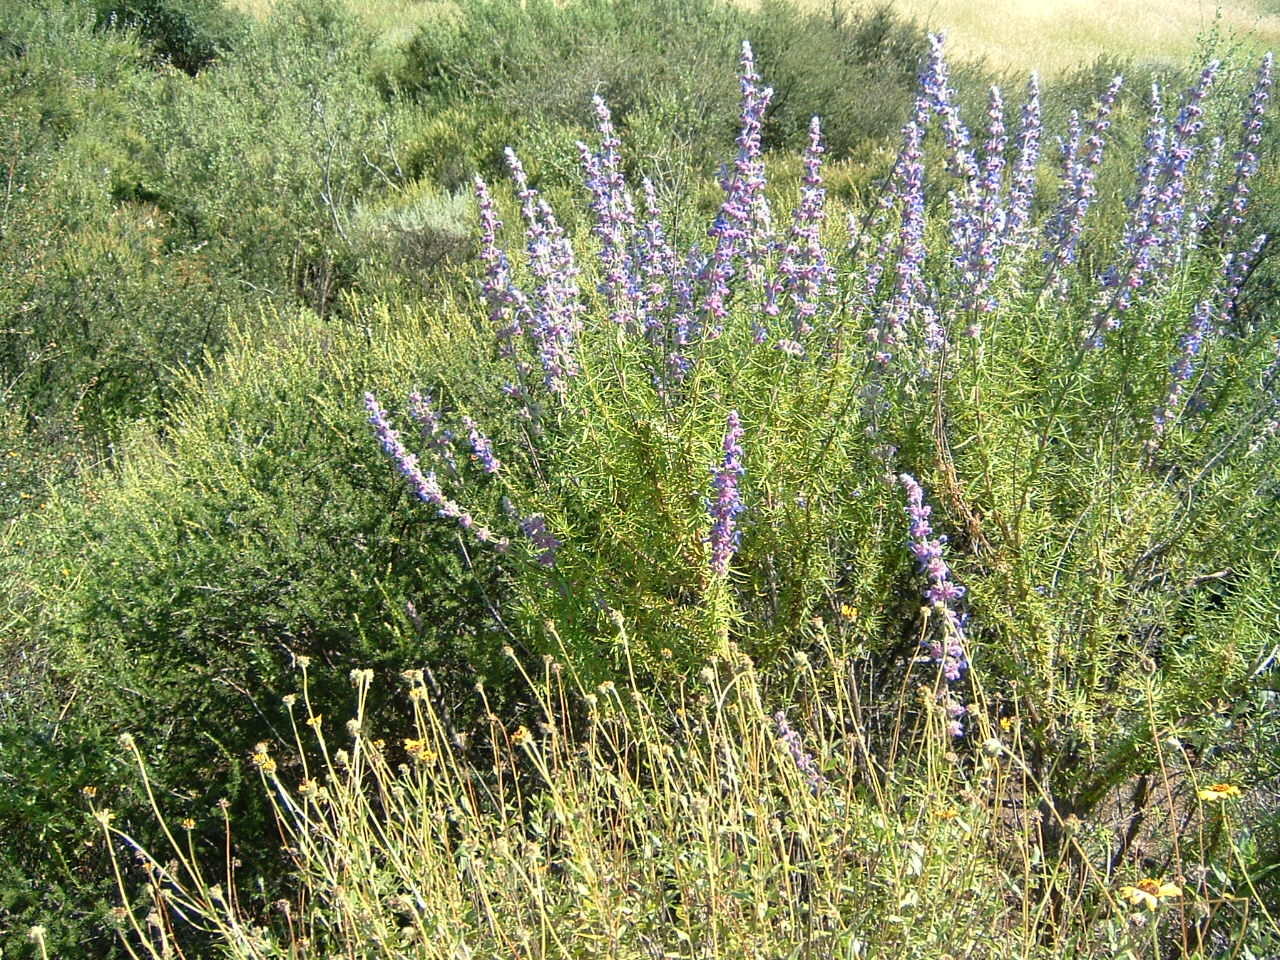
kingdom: Plantae
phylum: Tracheophyta
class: Magnoliopsida
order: Lamiales
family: Lamiaceae
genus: Trichostema
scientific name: Trichostema lanatum
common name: Woolly bluecurls
